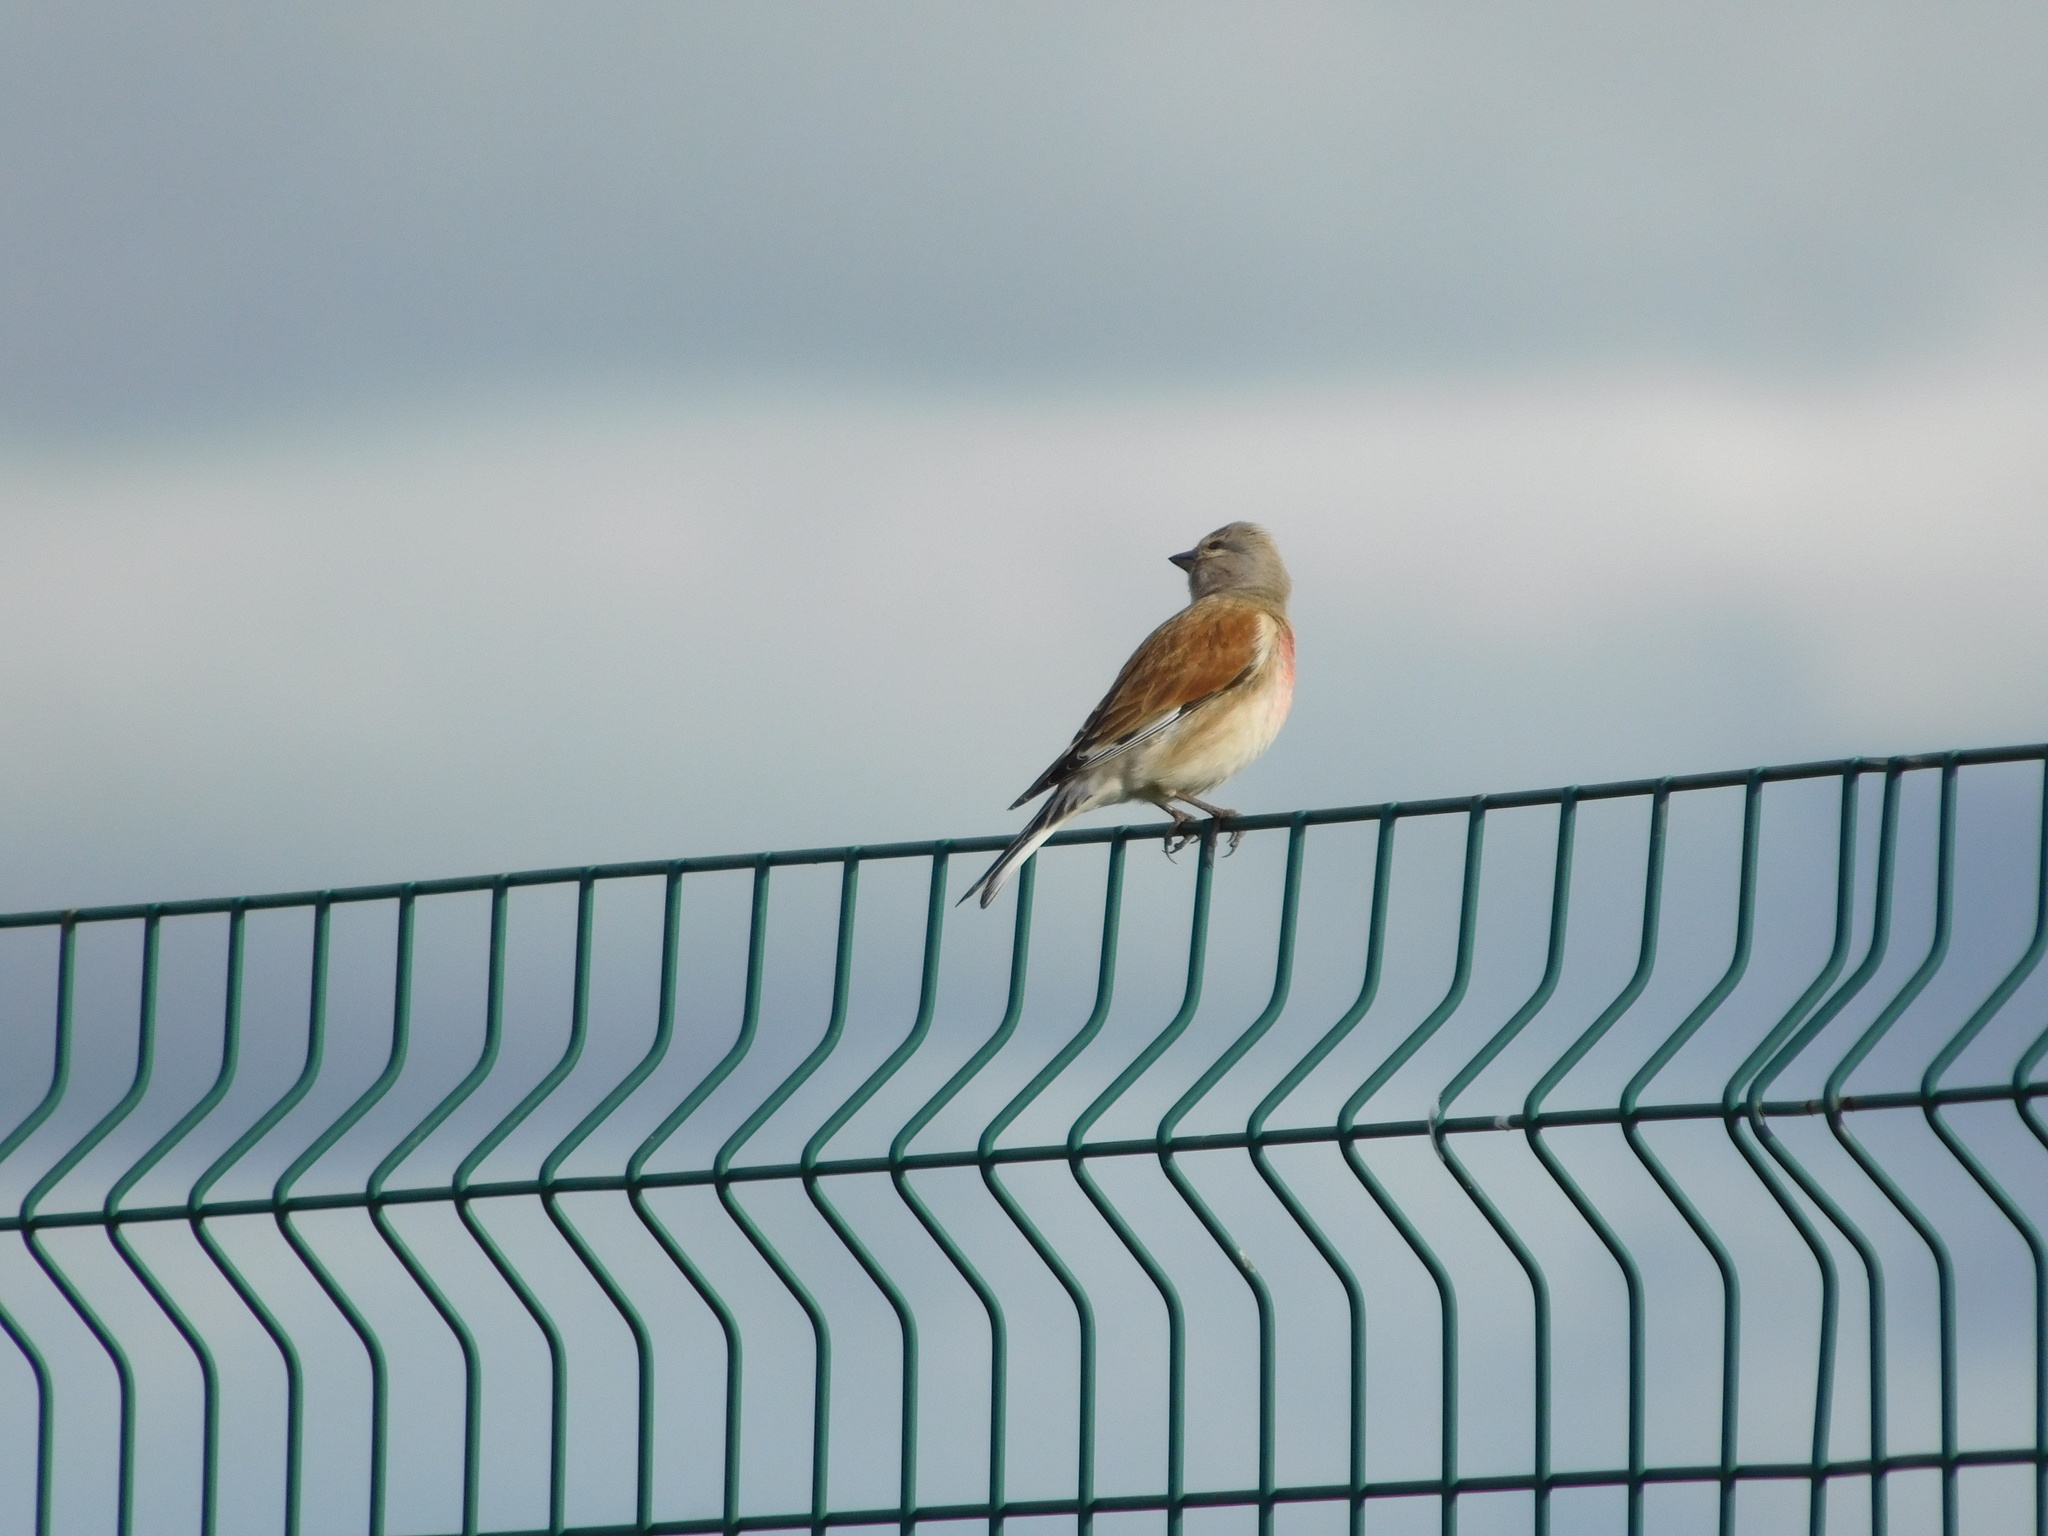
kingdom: Animalia
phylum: Chordata
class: Aves
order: Passeriformes
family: Fringillidae
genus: Linaria
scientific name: Linaria cannabina
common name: Common linnet
